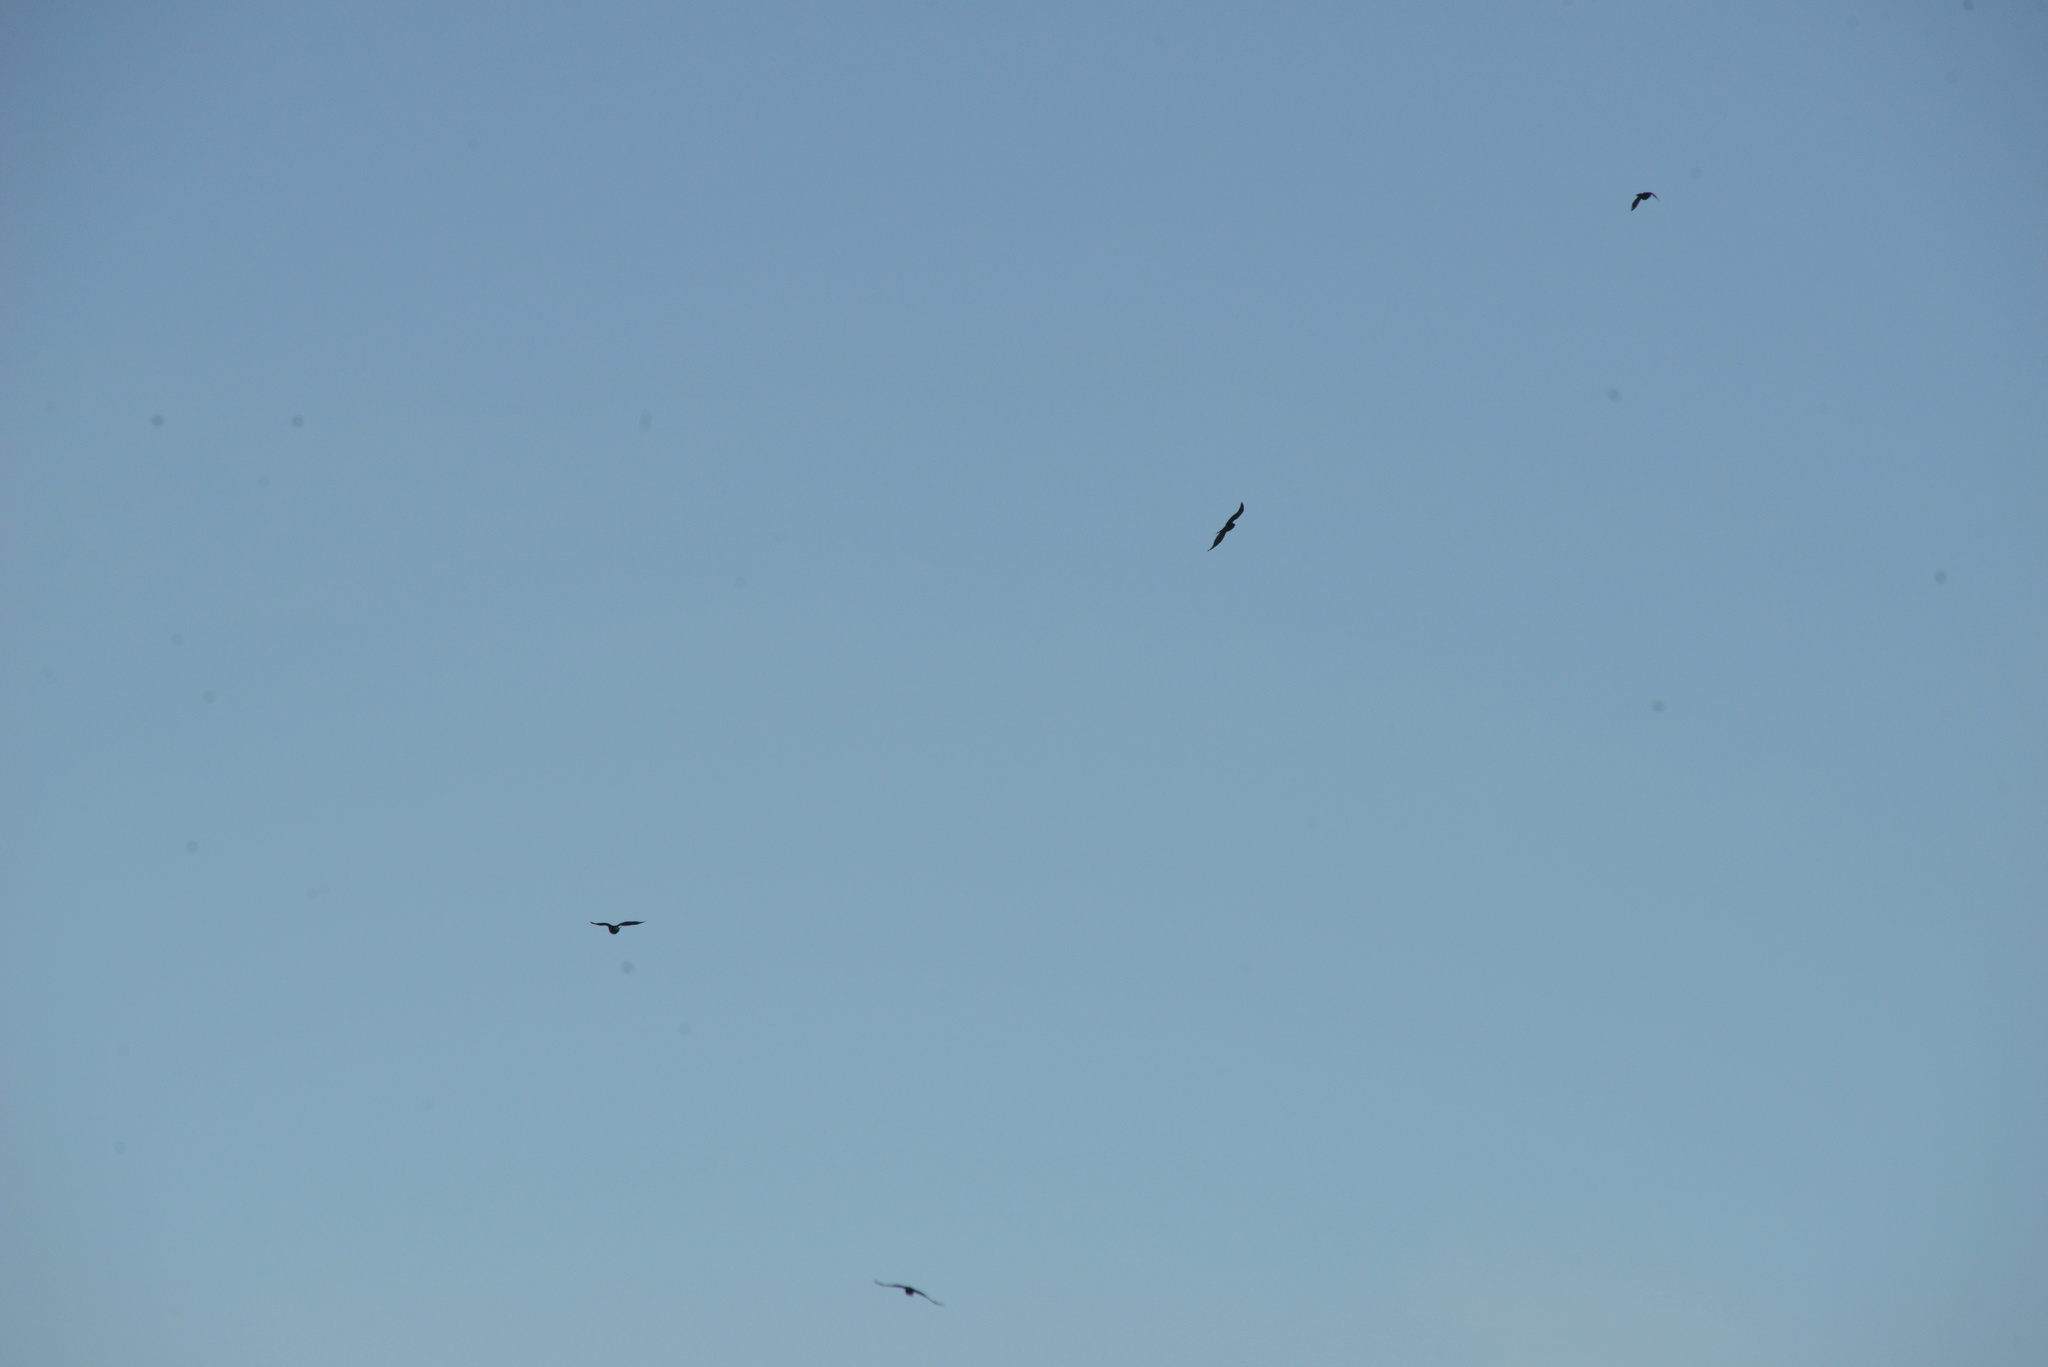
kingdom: Animalia
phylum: Chordata
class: Aves
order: Passeriformes
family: Corvidae
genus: Corvus
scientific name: Corvus brachyrhynchos
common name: American crow
